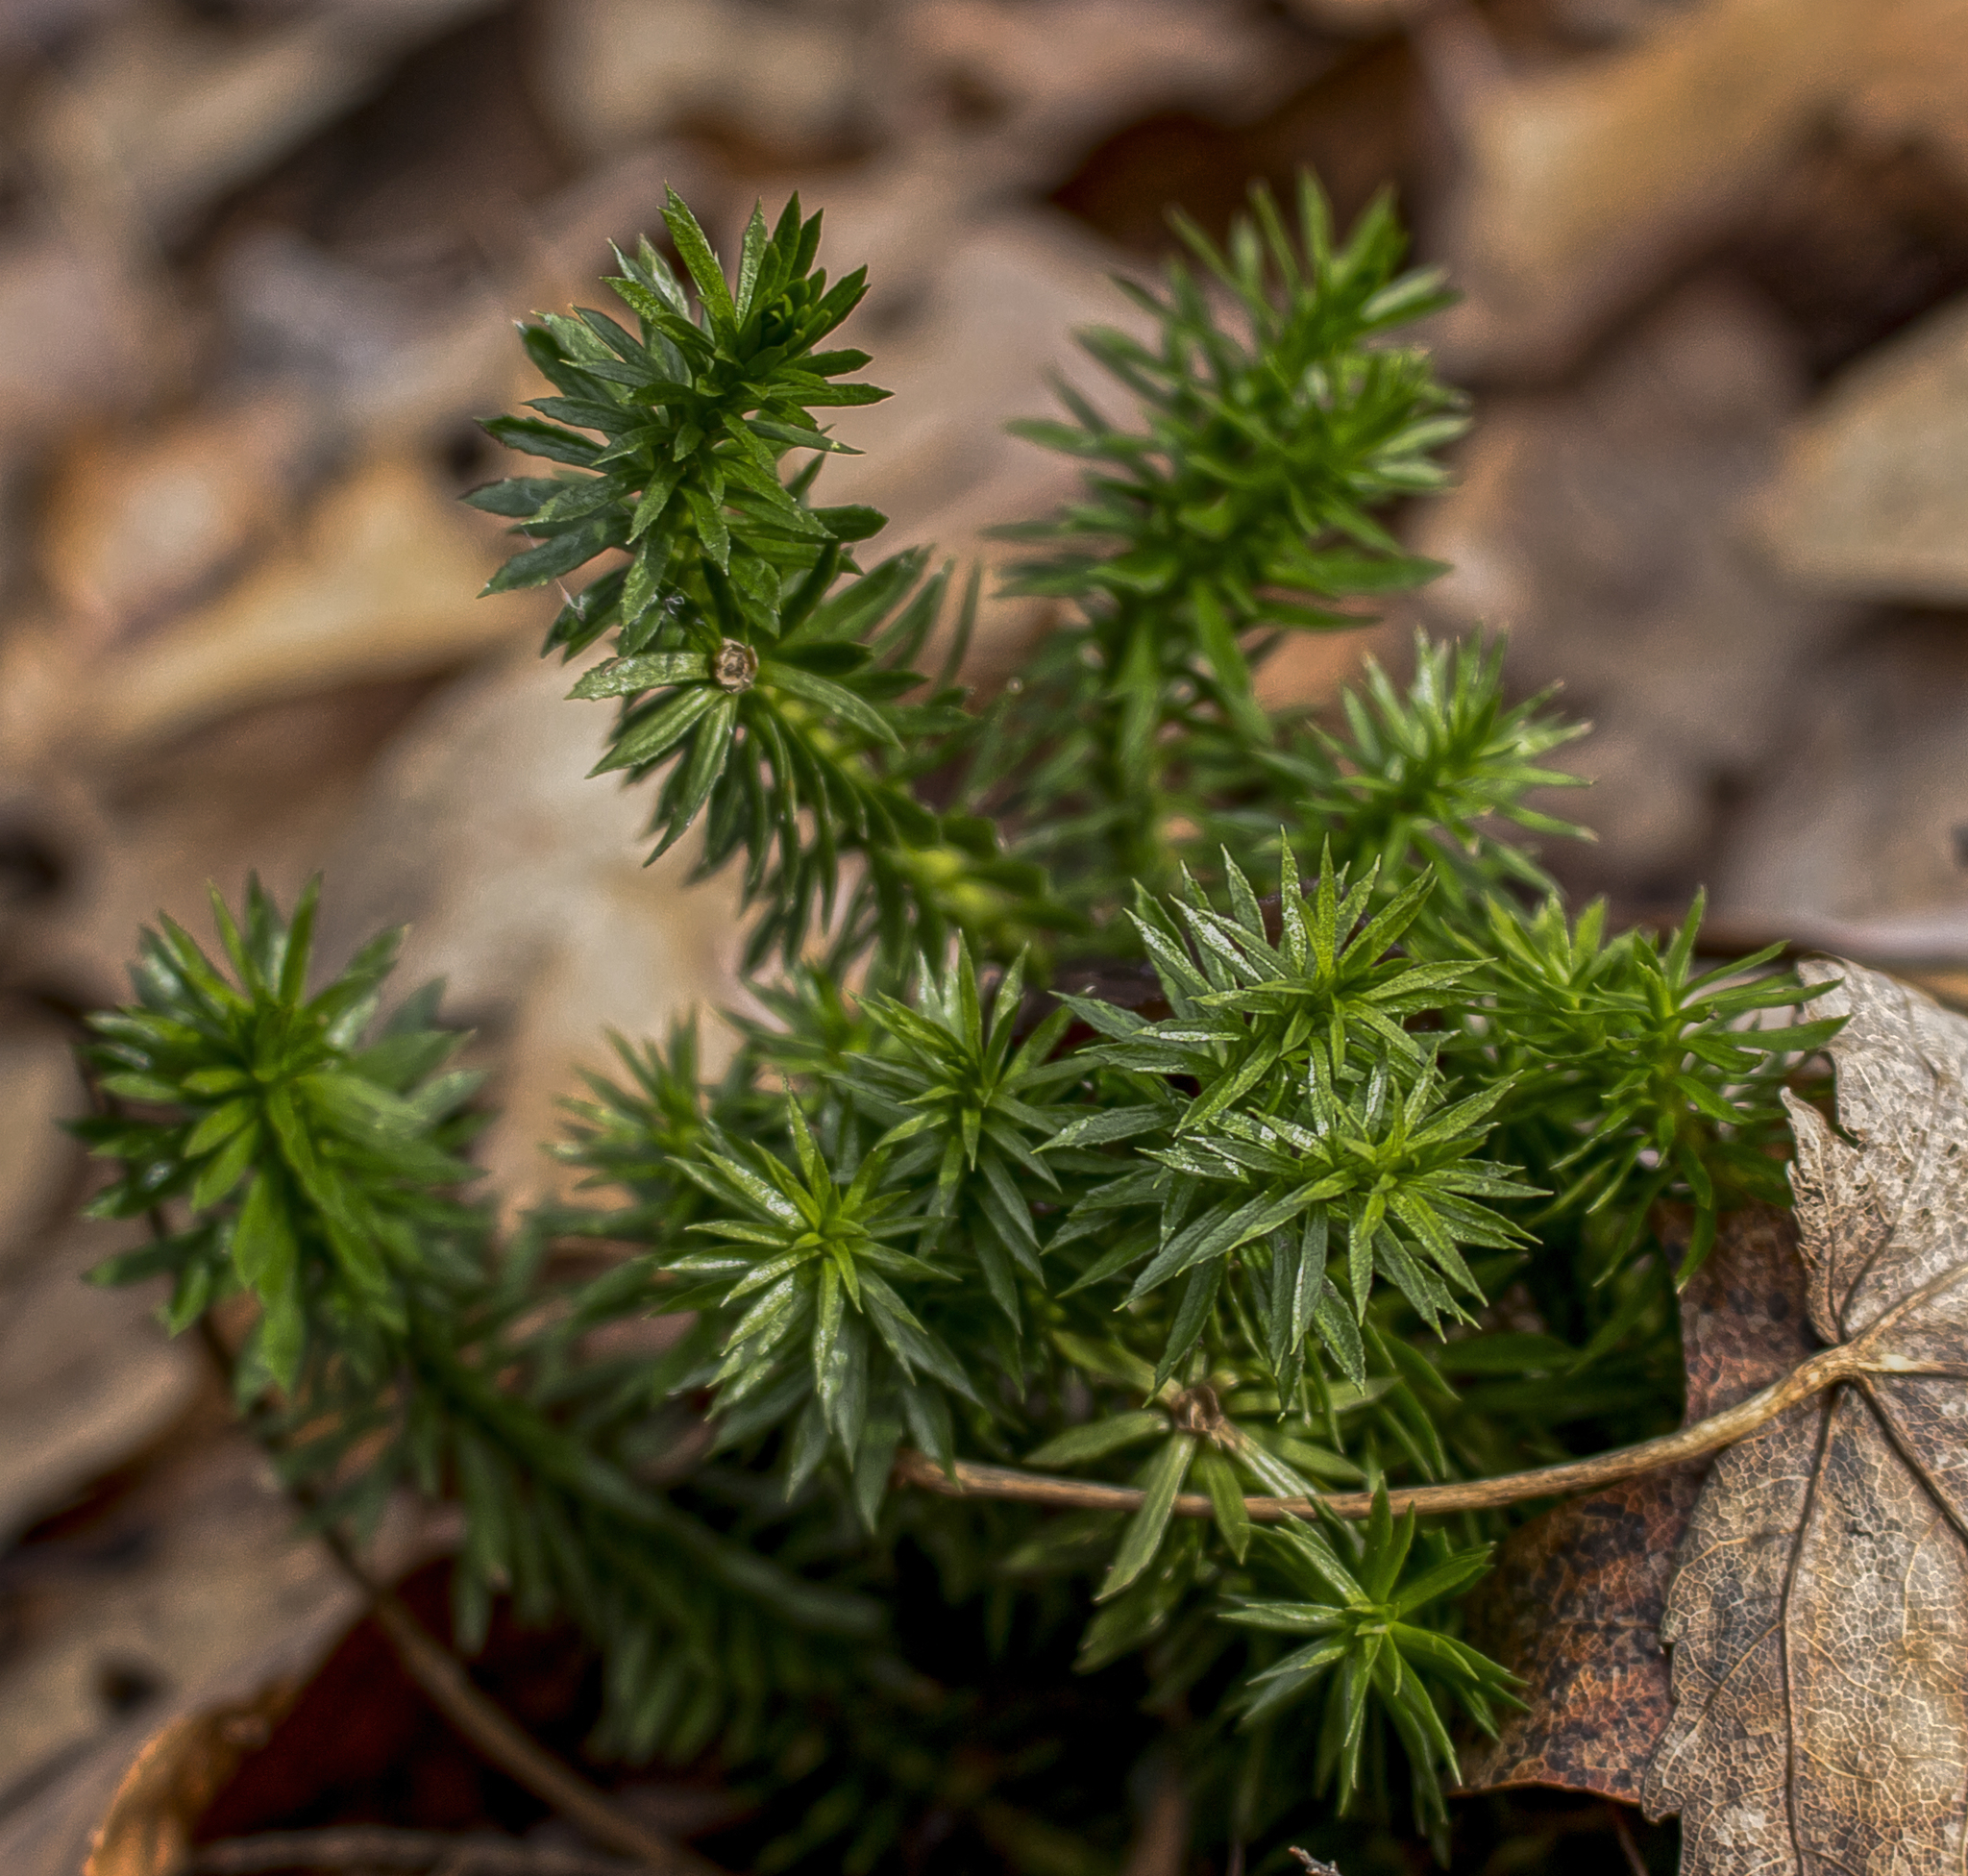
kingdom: Plantae
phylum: Tracheophyta
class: Lycopodiopsida
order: Lycopodiales
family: Lycopodiaceae
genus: Huperzia
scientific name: Huperzia lucidula
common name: Shining clubmoss
